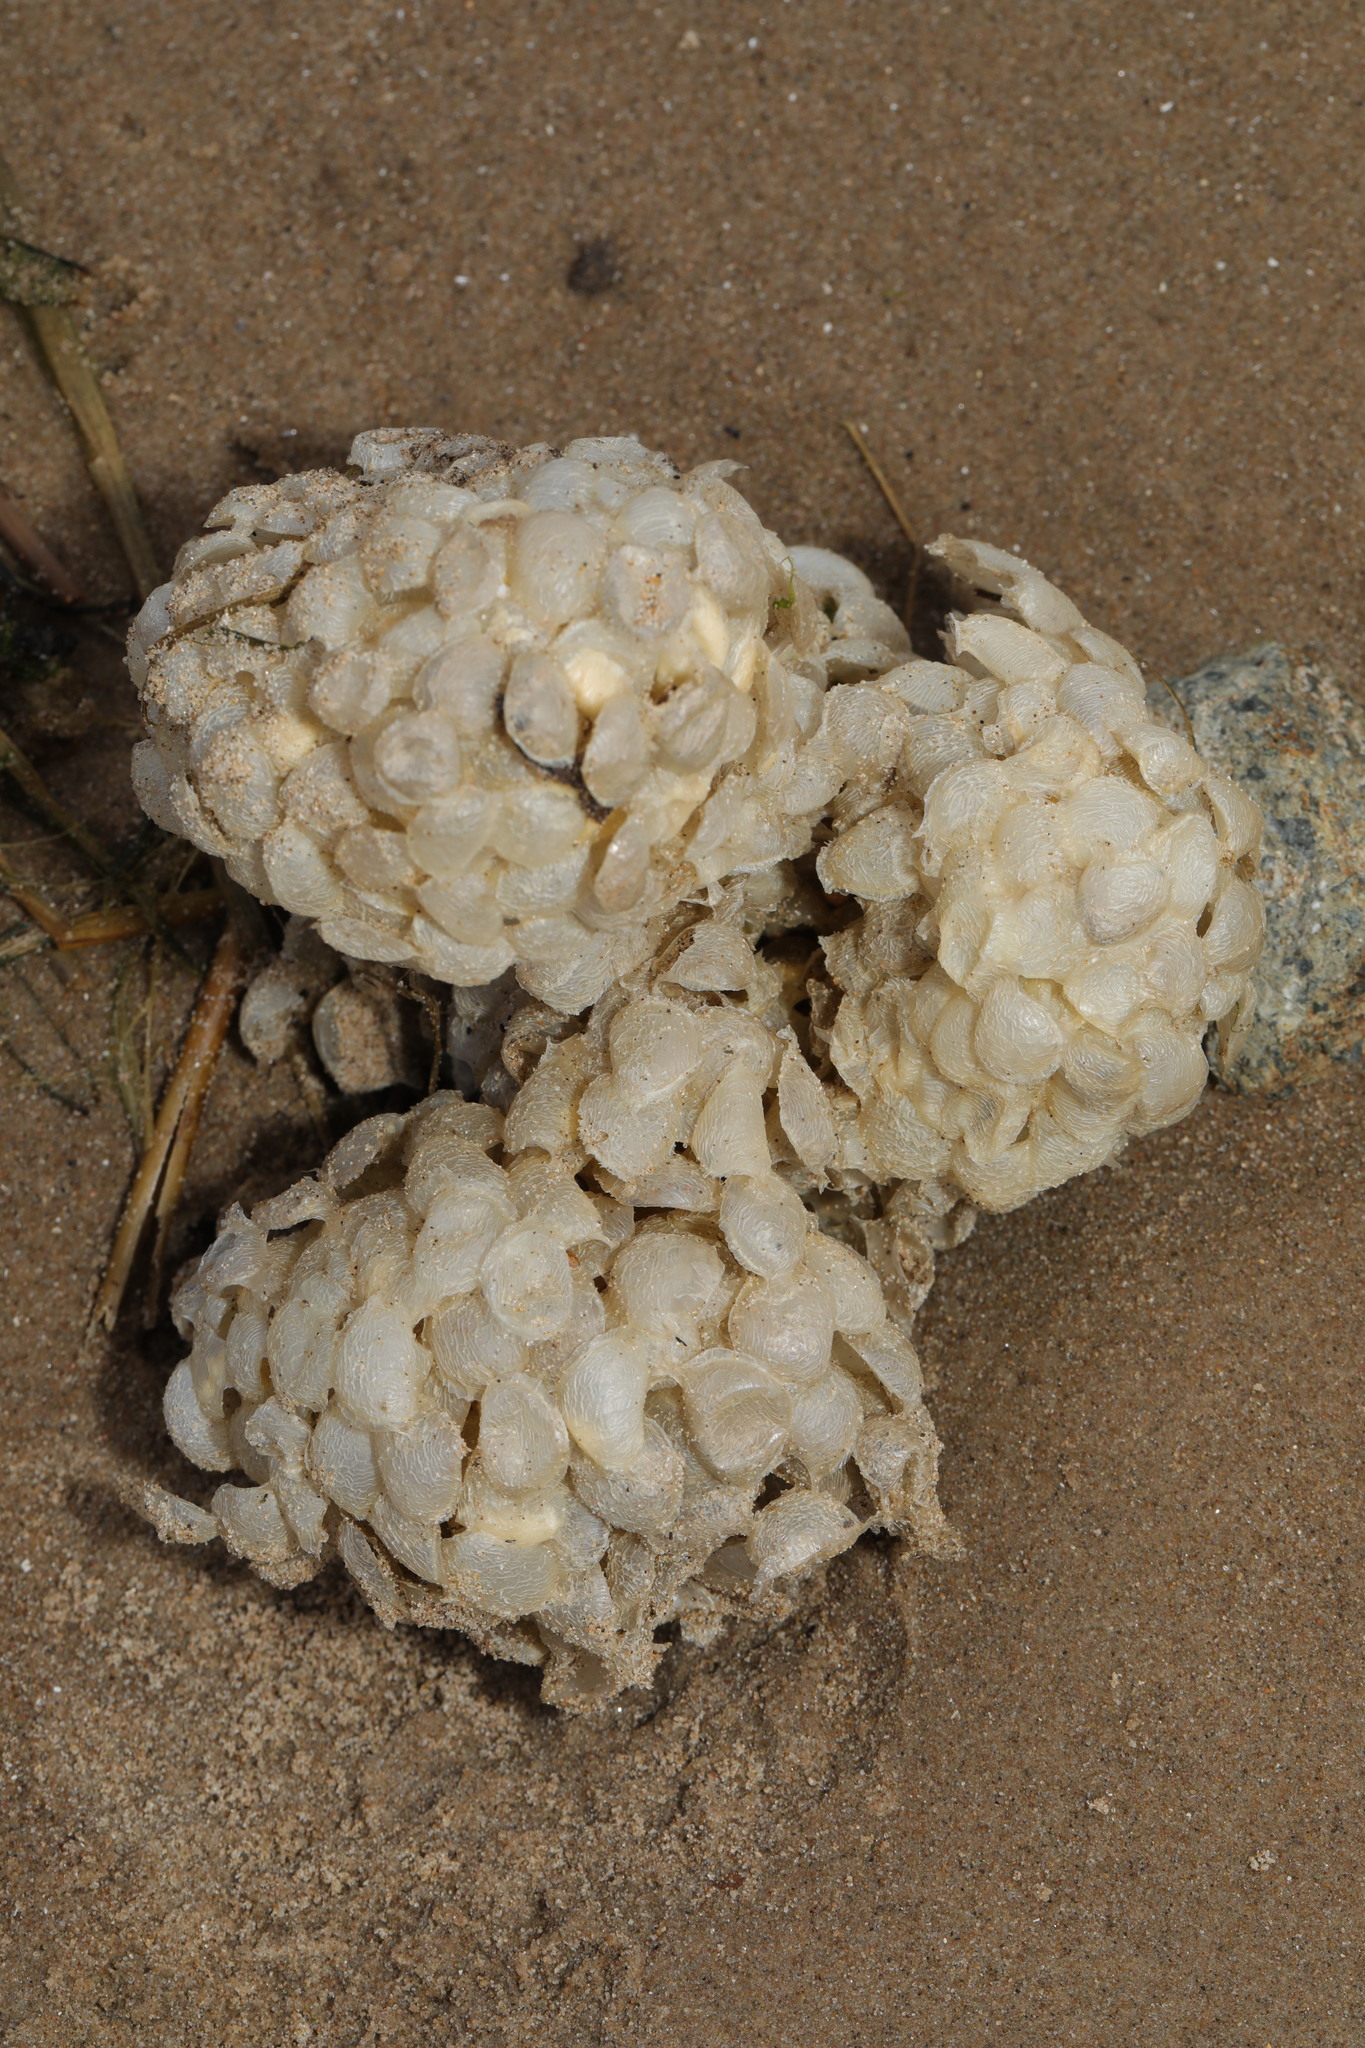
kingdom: Animalia
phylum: Mollusca
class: Gastropoda
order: Neogastropoda
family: Buccinidae
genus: Buccinum
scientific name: Buccinum undatum
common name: Common whelk
